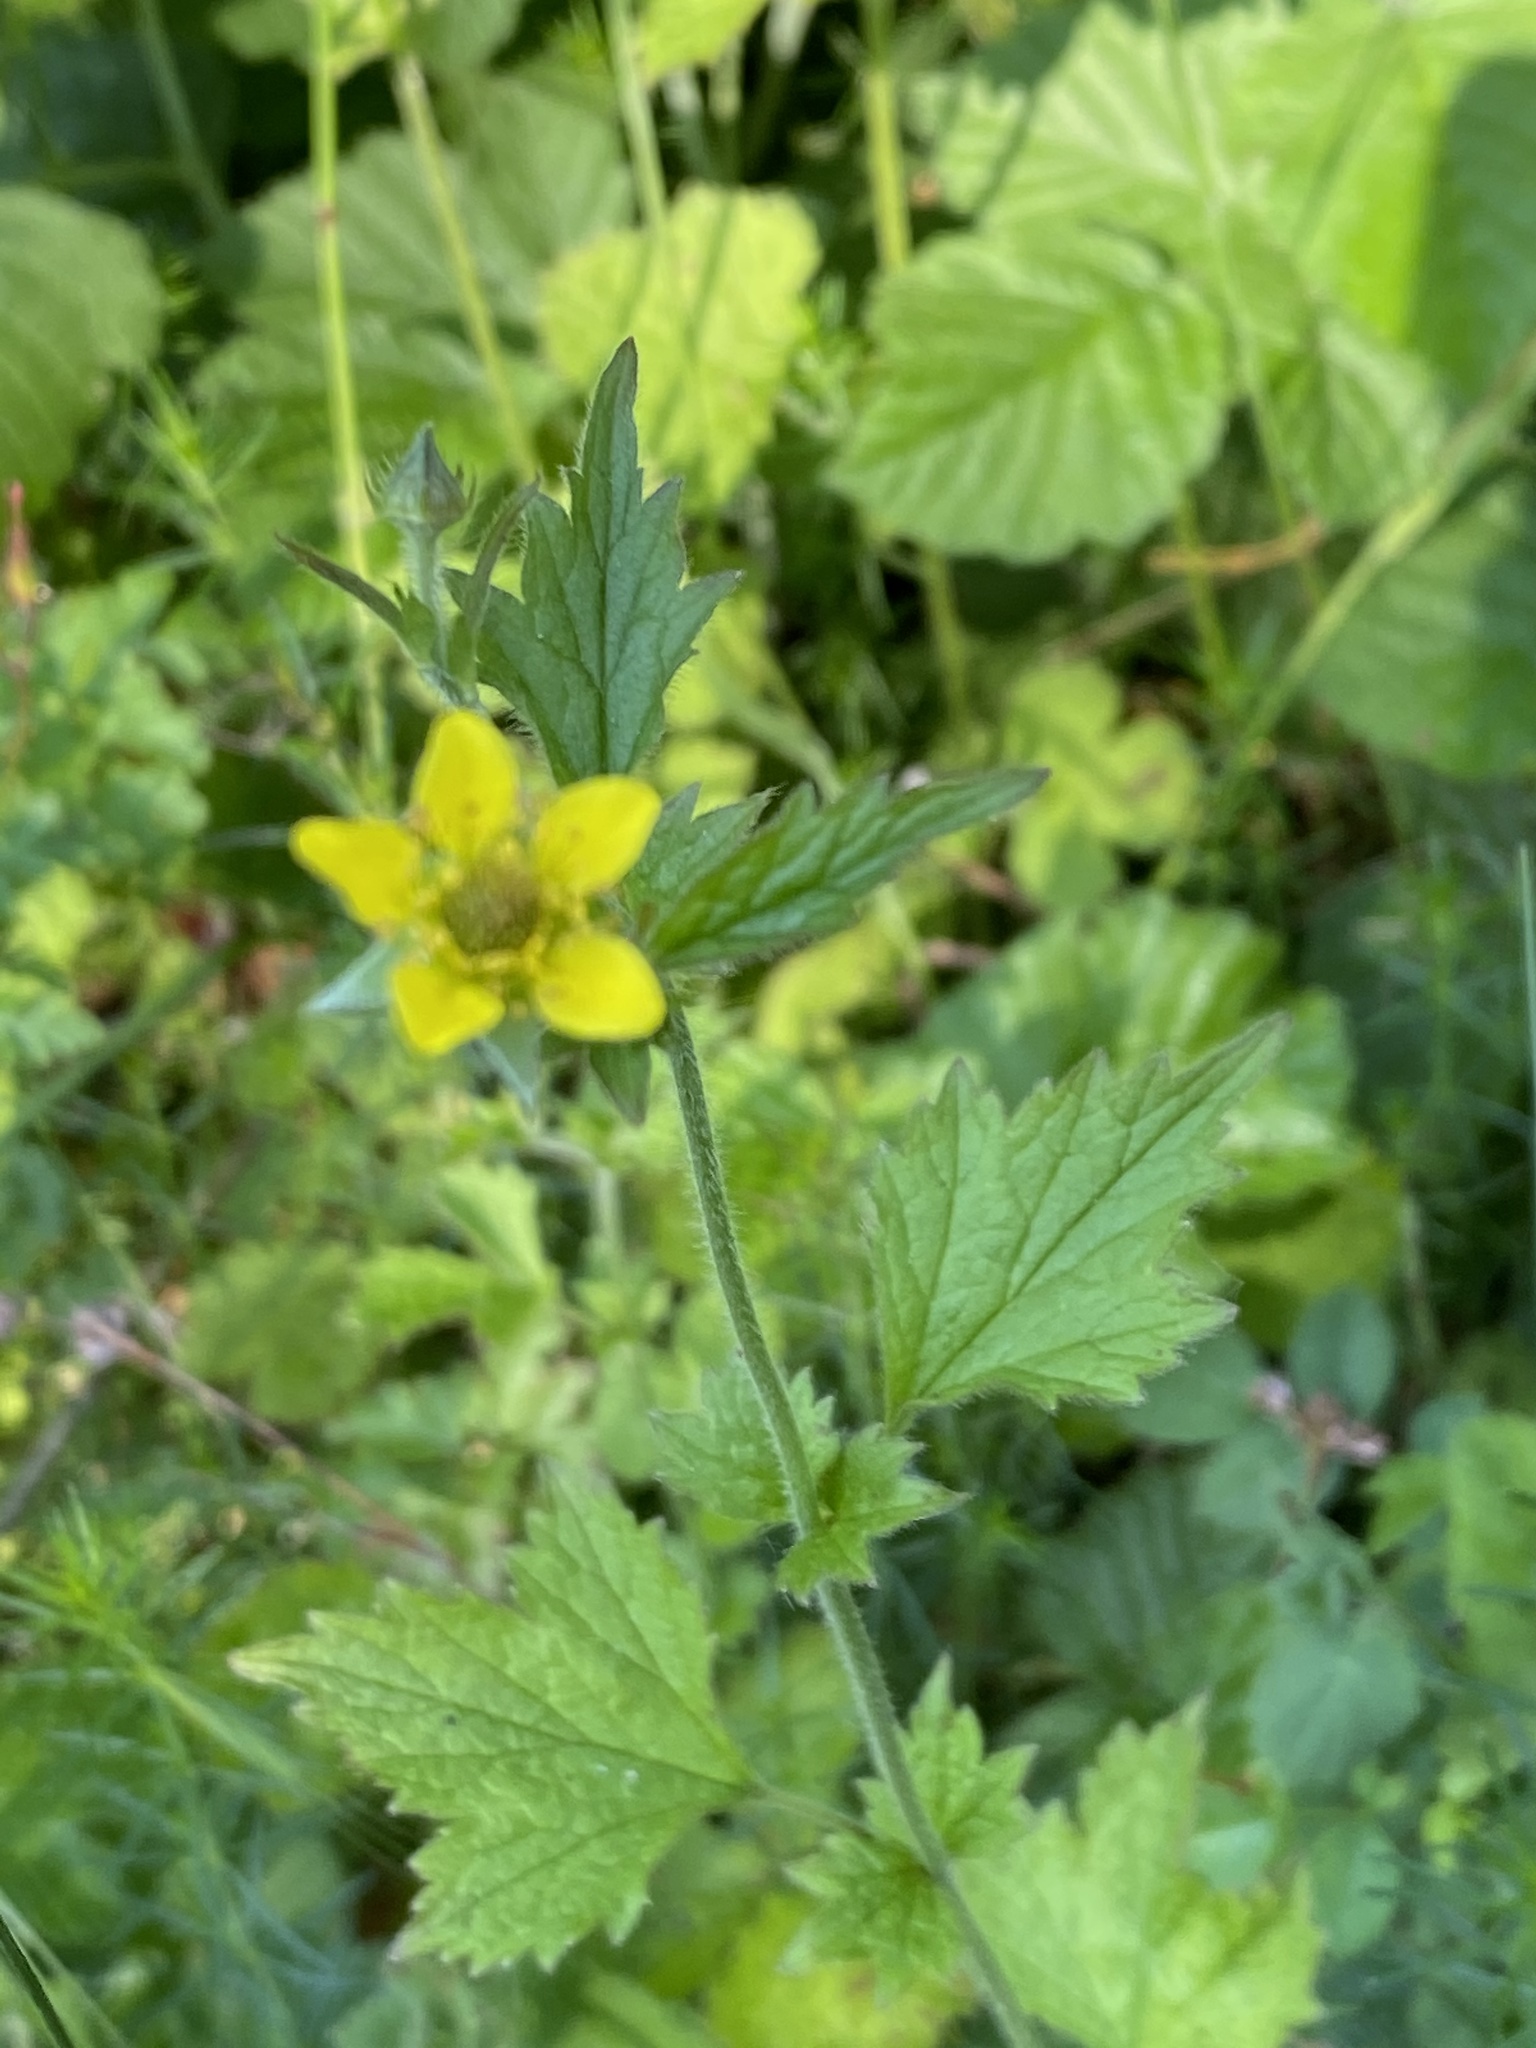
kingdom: Plantae
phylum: Tracheophyta
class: Magnoliopsida
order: Rosales
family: Rosaceae
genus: Geum
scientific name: Geum urbanum
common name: Wood avens
